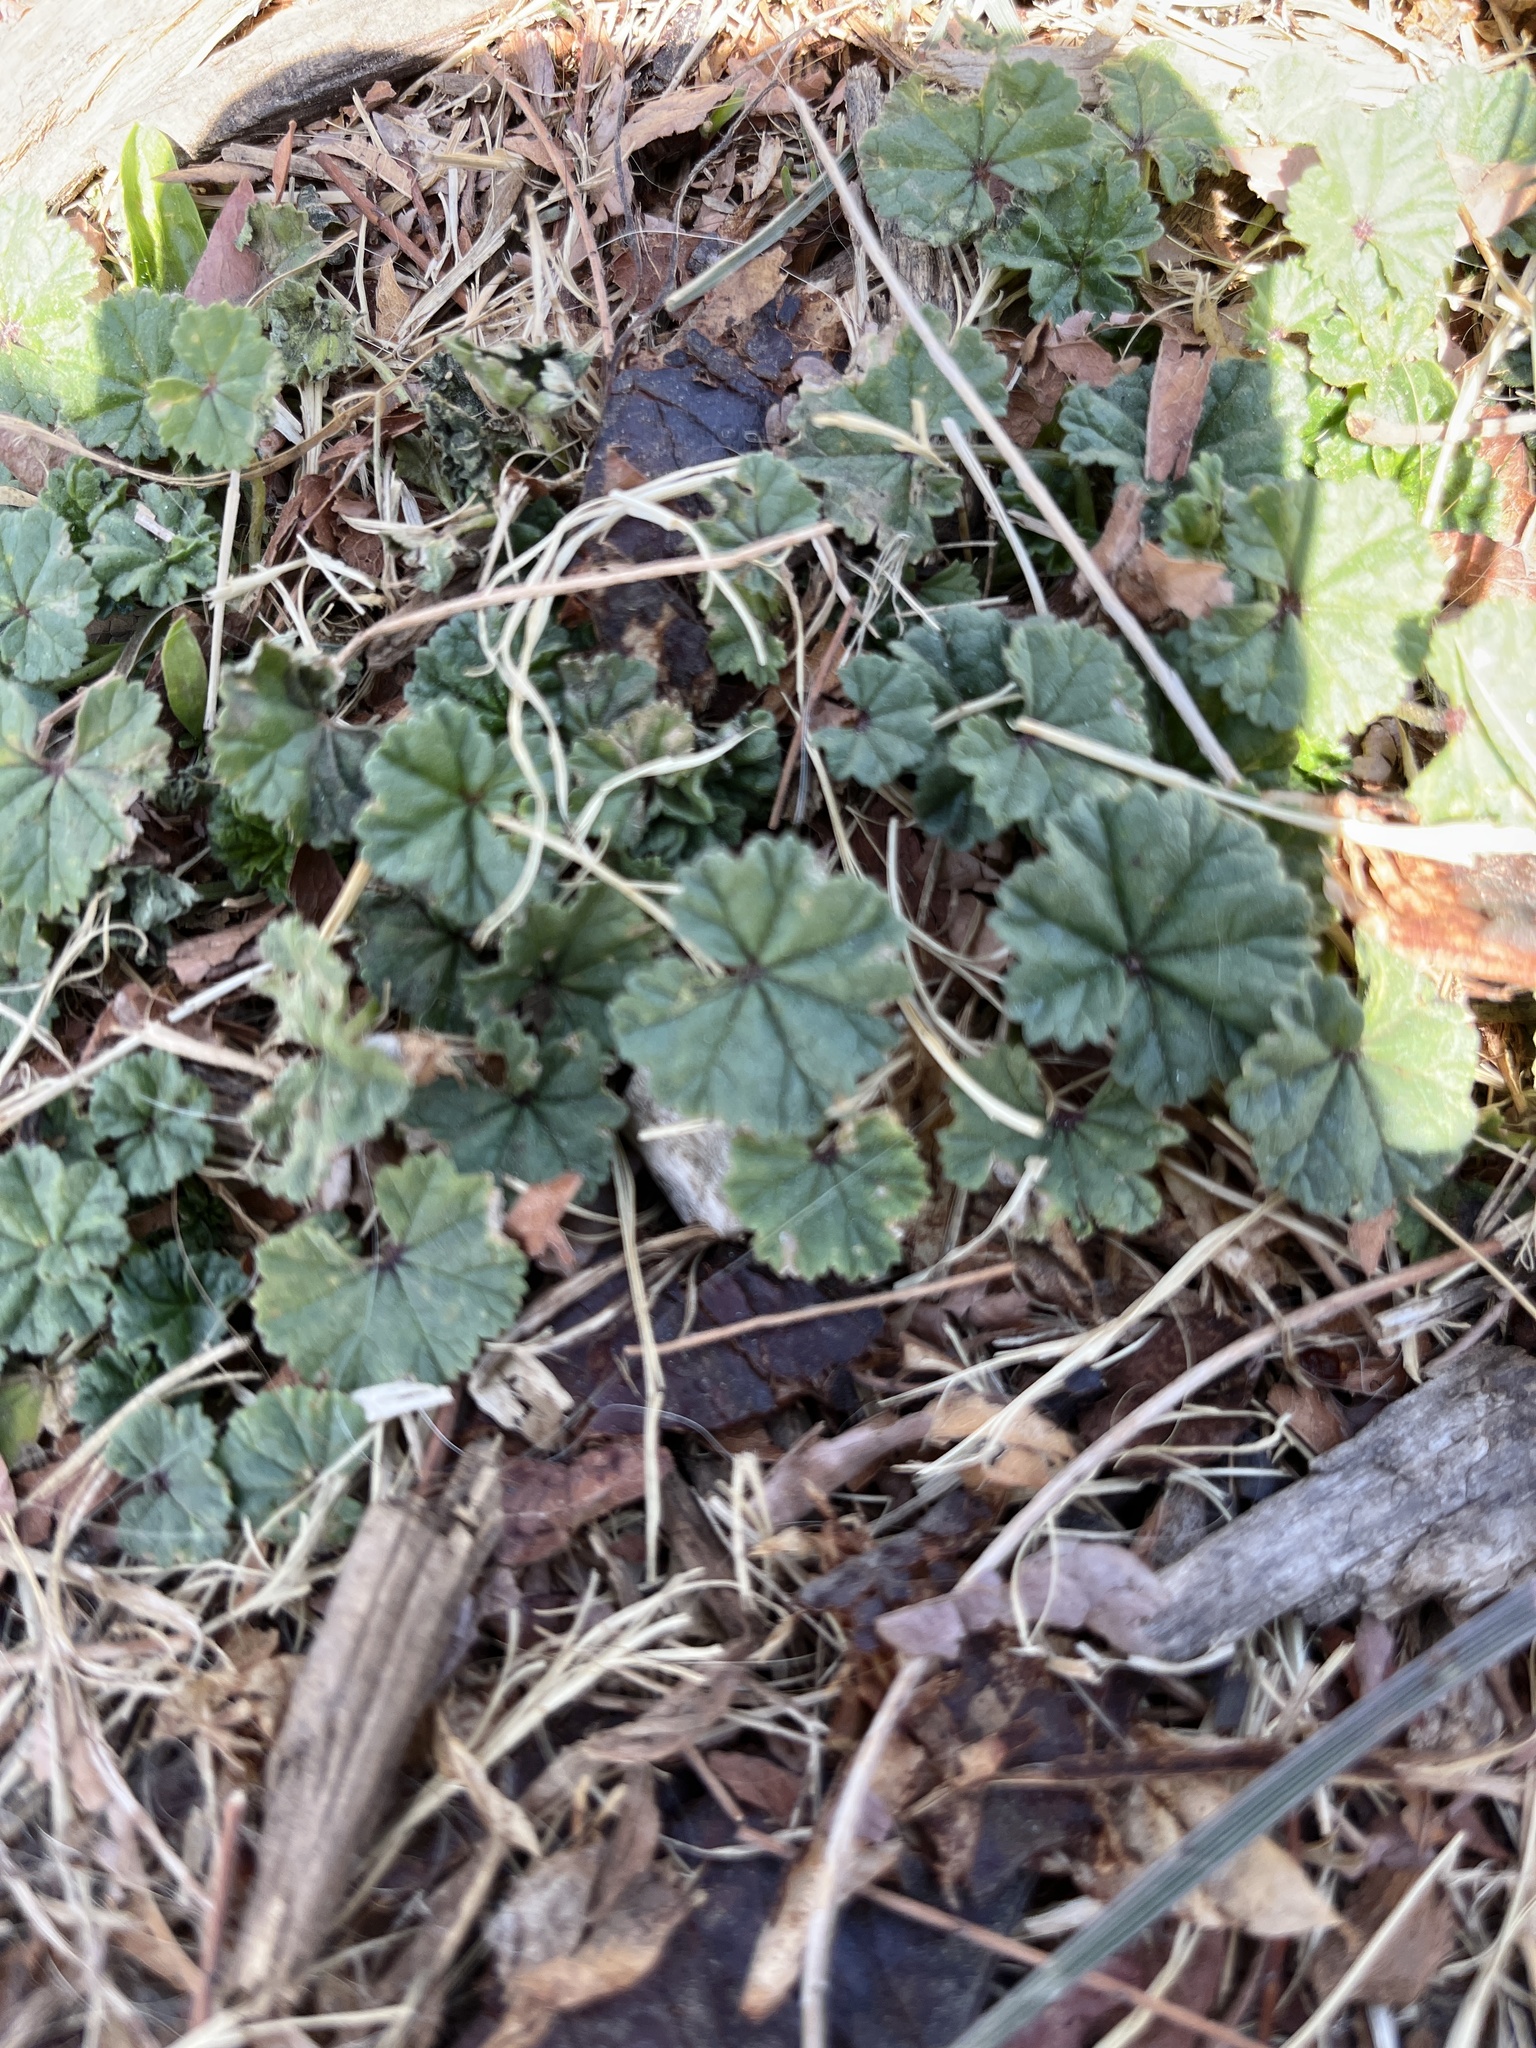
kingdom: Plantae
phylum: Tracheophyta
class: Magnoliopsida
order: Malvales
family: Malvaceae
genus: Malva
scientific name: Malva neglecta
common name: Common mallow
